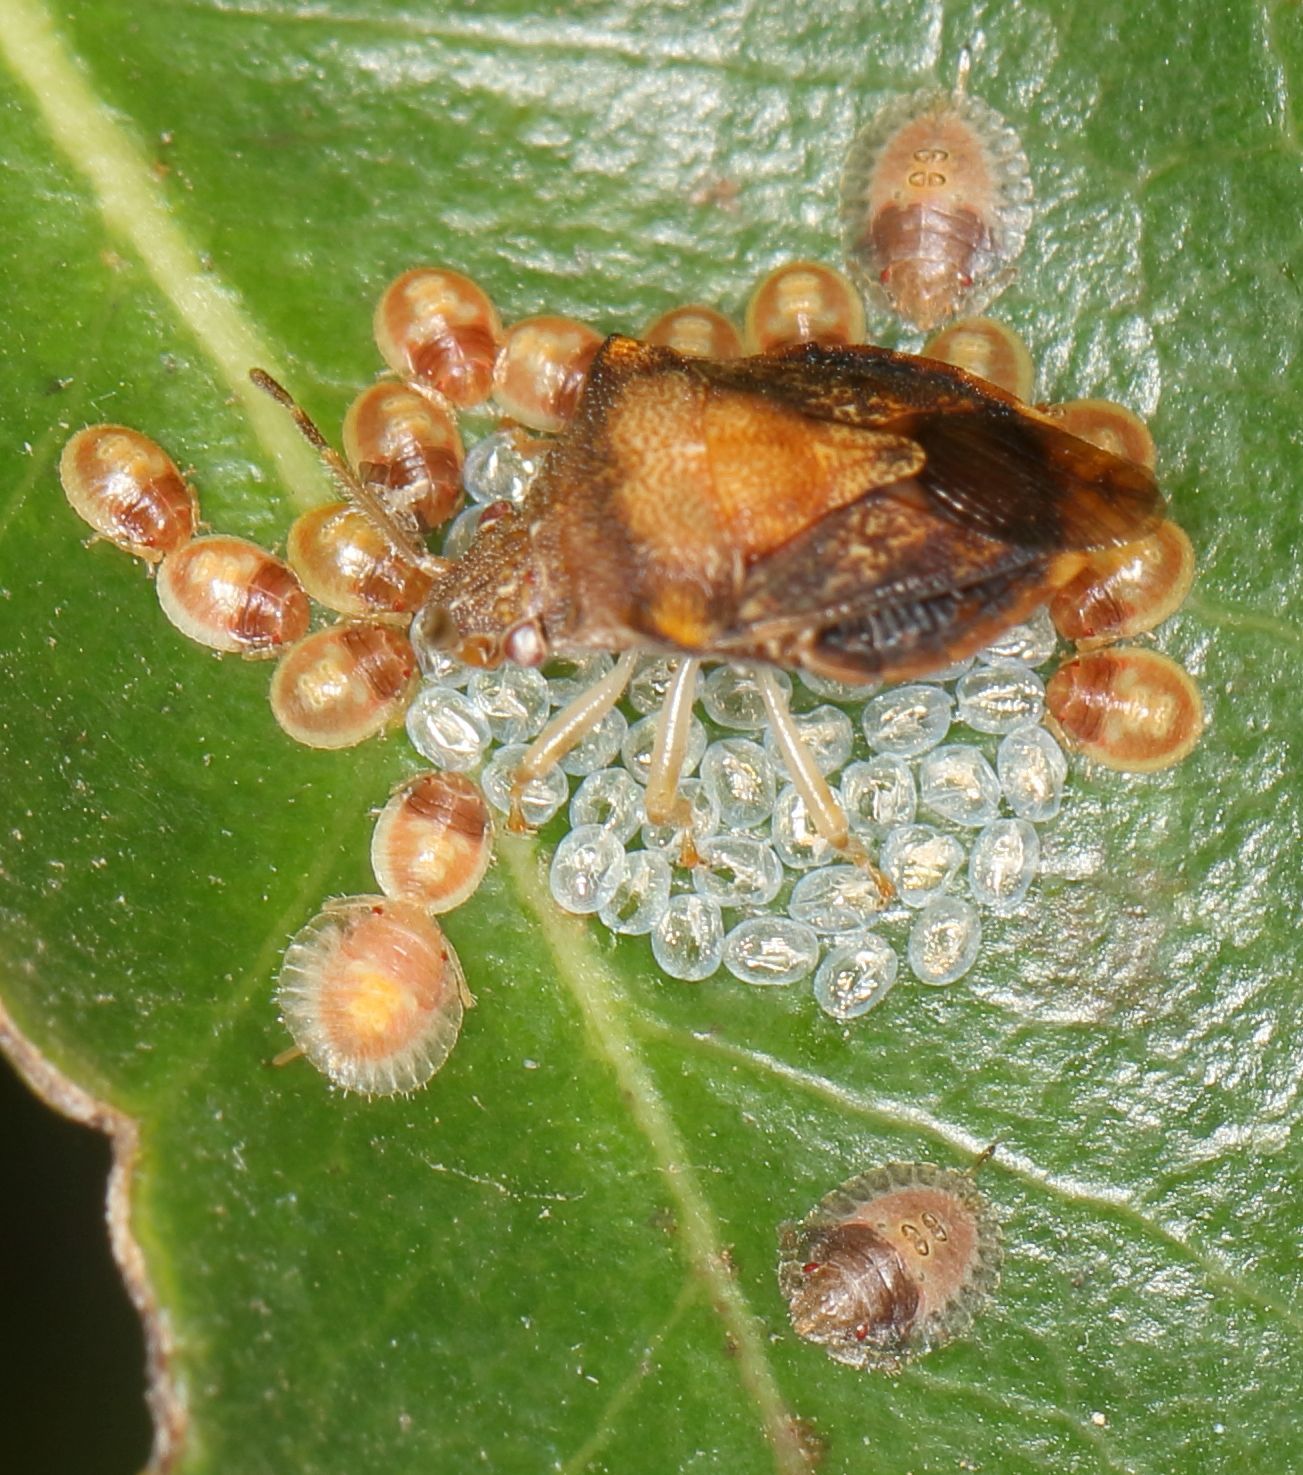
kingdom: Animalia
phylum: Arthropoda
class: Insecta
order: Hemiptera
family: Acanthosomatidae
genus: Uhlunga
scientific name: Uhlunga typica
